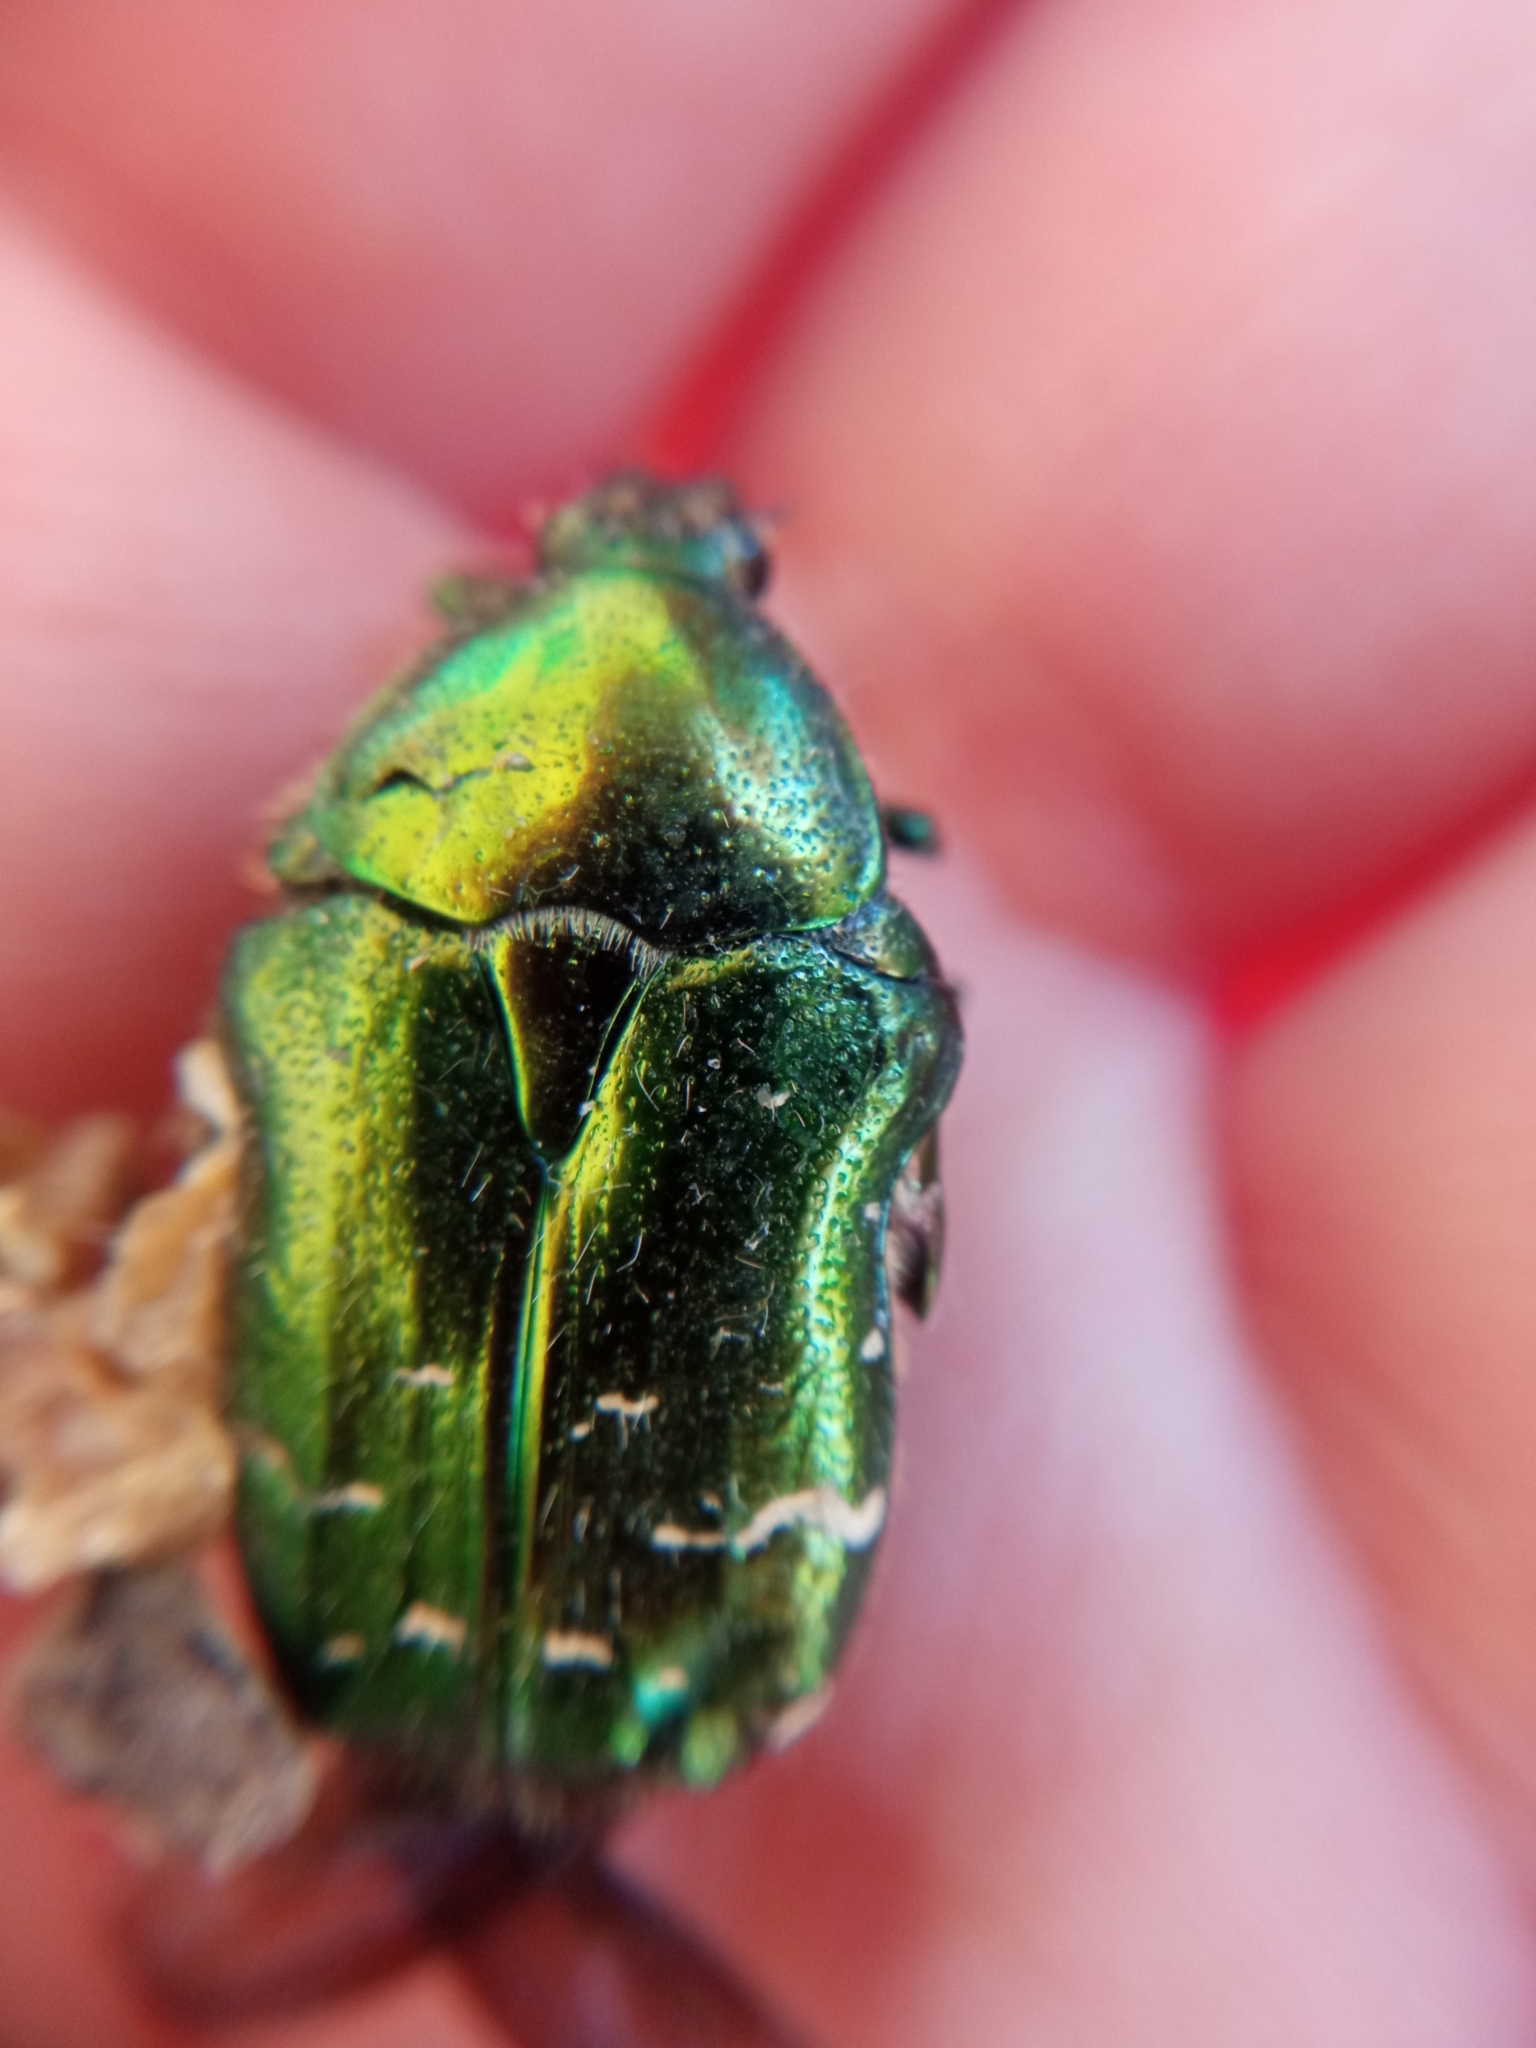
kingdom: Animalia
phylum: Arthropoda
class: Insecta
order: Coleoptera
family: Scarabaeidae
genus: Cetonia
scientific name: Cetonia aurata
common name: Rose chafer
